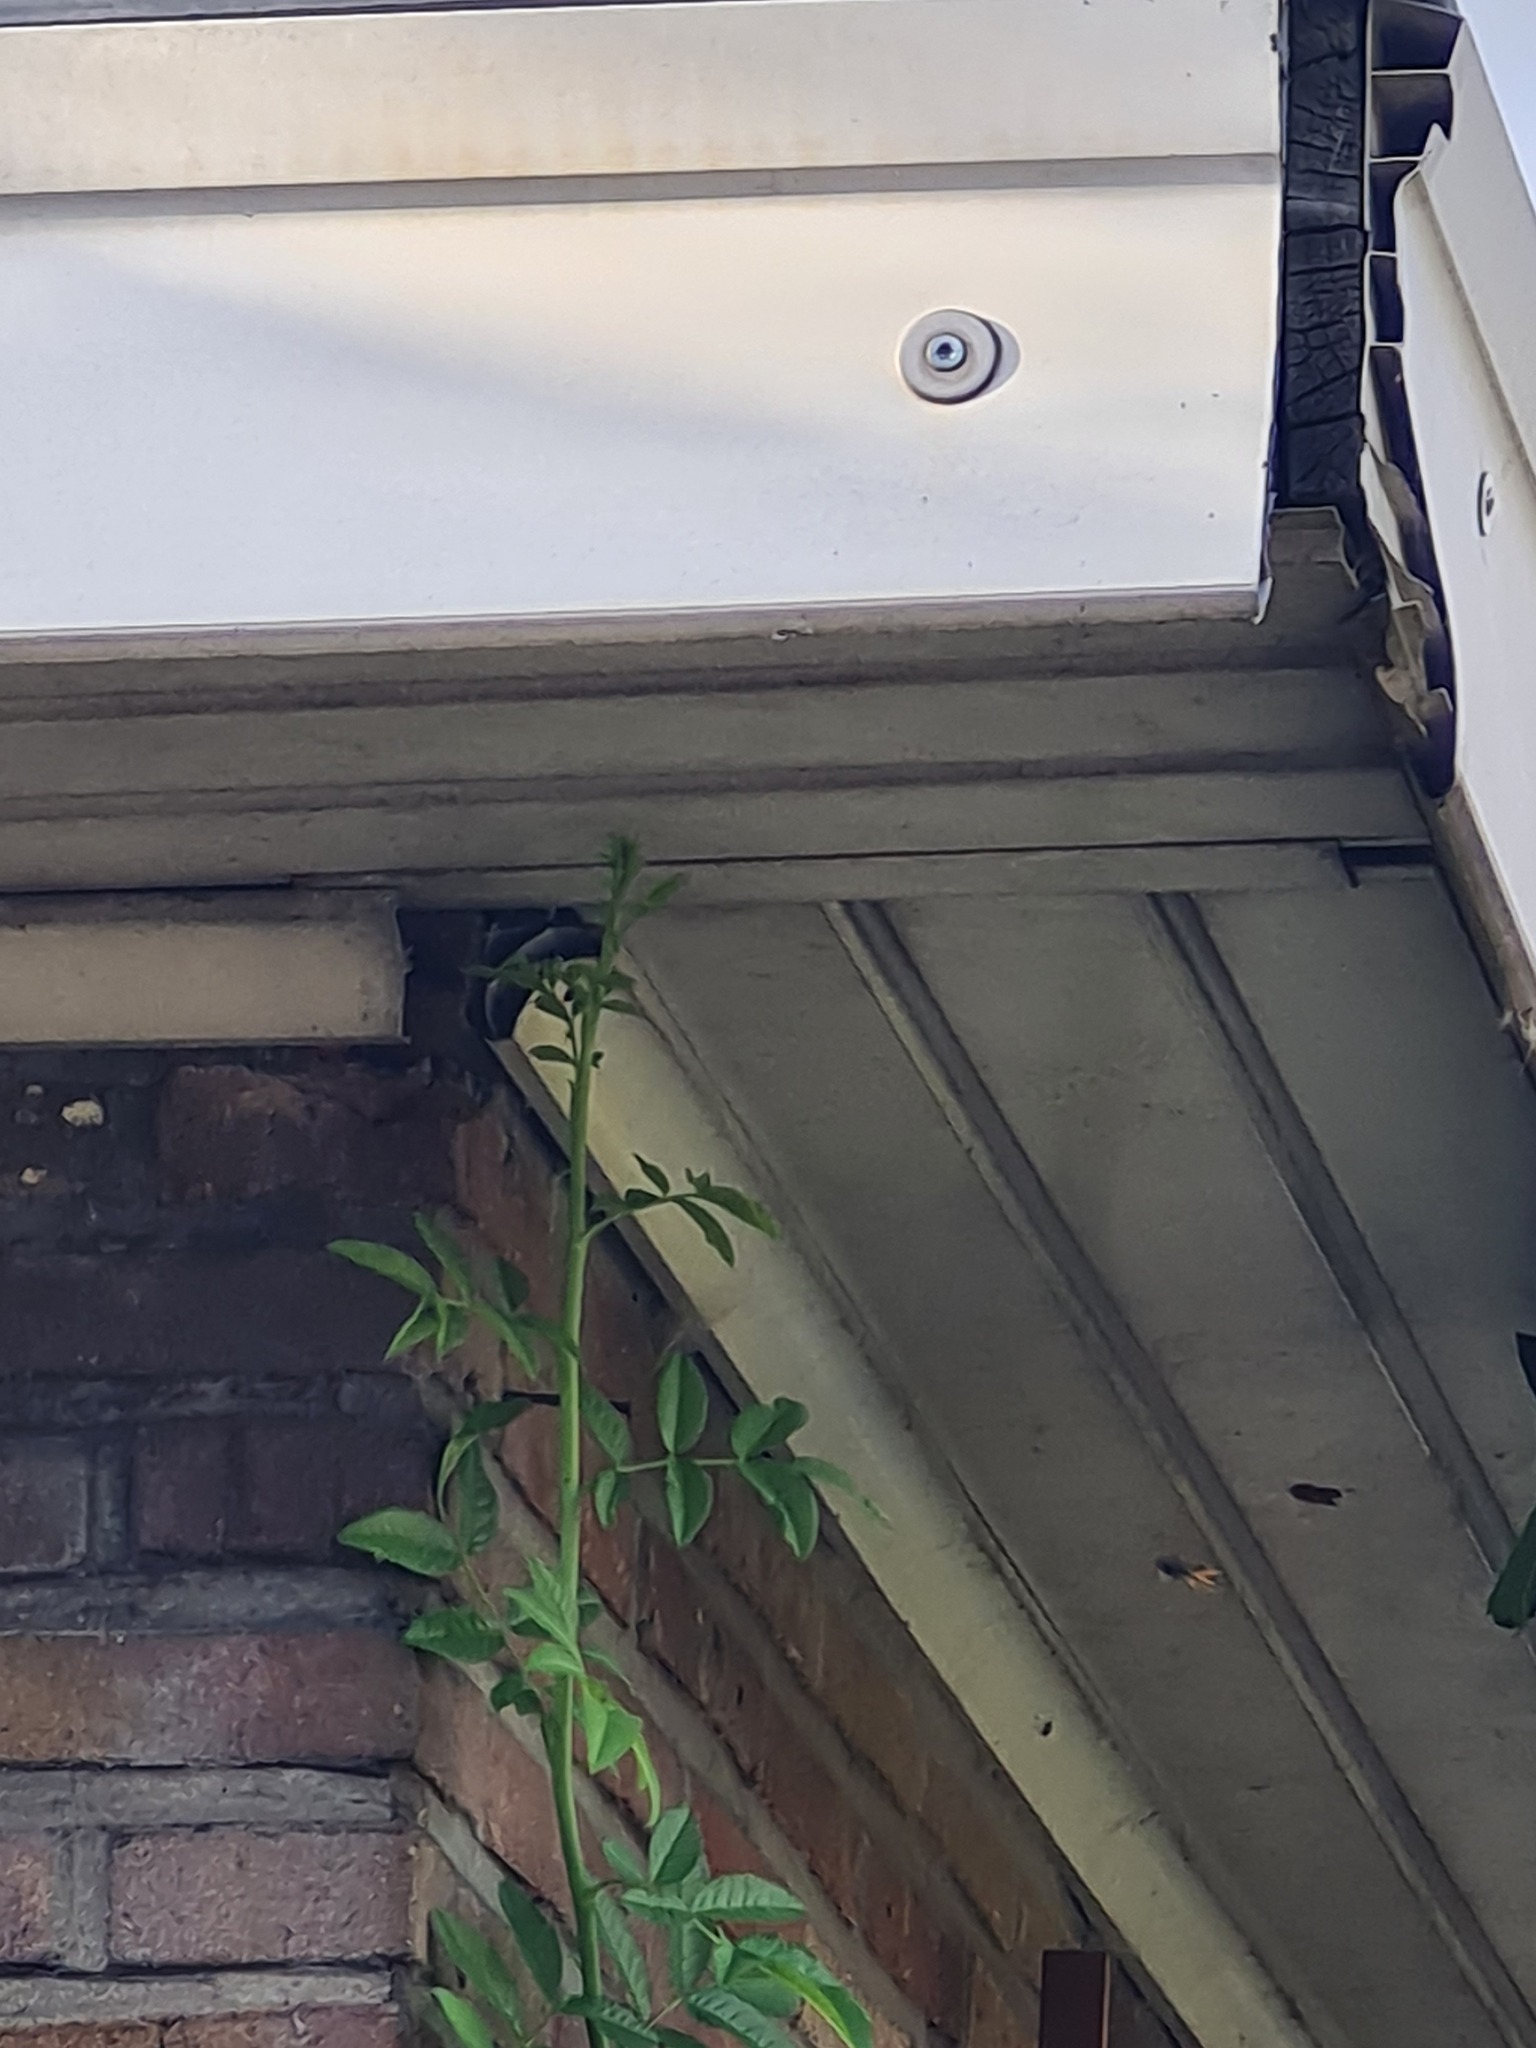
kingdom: Animalia
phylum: Arthropoda
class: Insecta
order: Hymenoptera
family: Vespidae
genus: Vespa
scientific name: Vespa velutina
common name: Asian hornet
